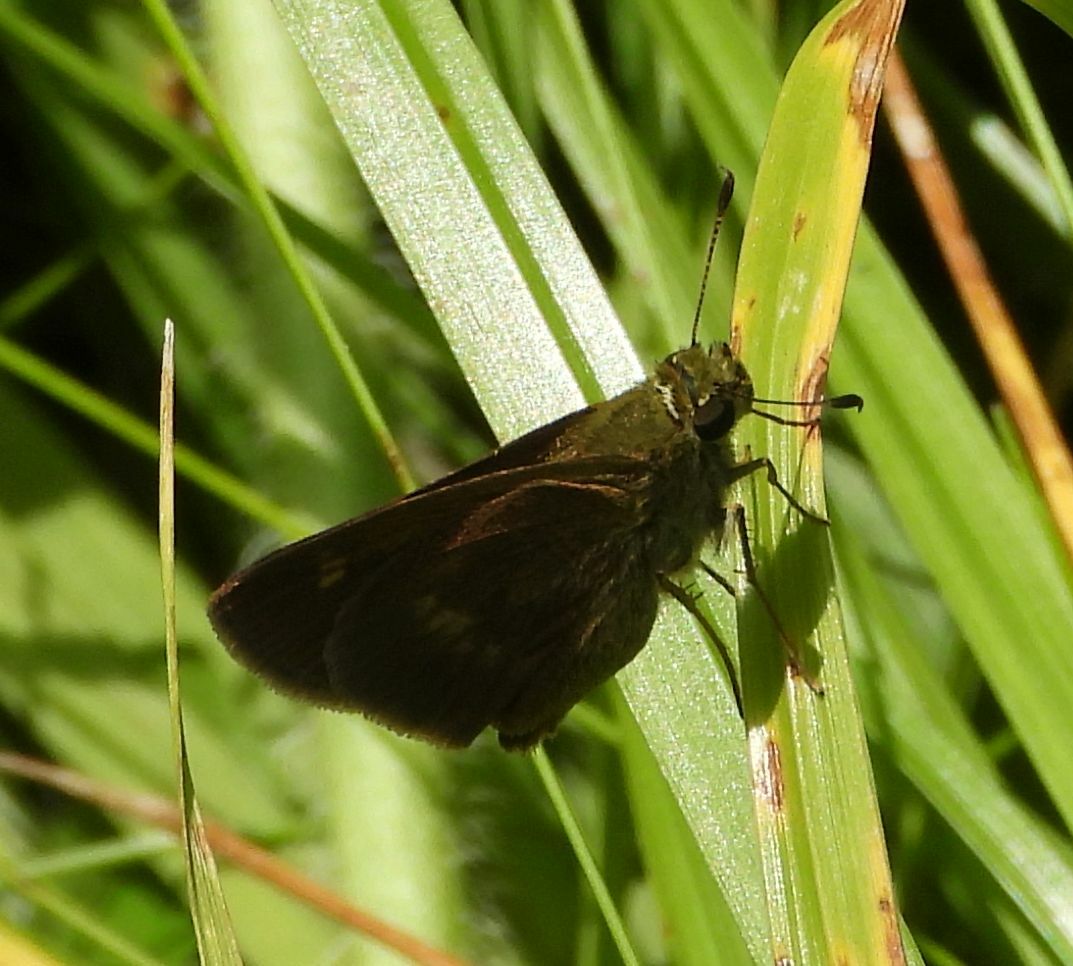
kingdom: Animalia
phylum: Arthropoda
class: Insecta
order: Lepidoptera
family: Hesperiidae
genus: Polites
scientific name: Polites egeremet
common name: Northern broken-dash
